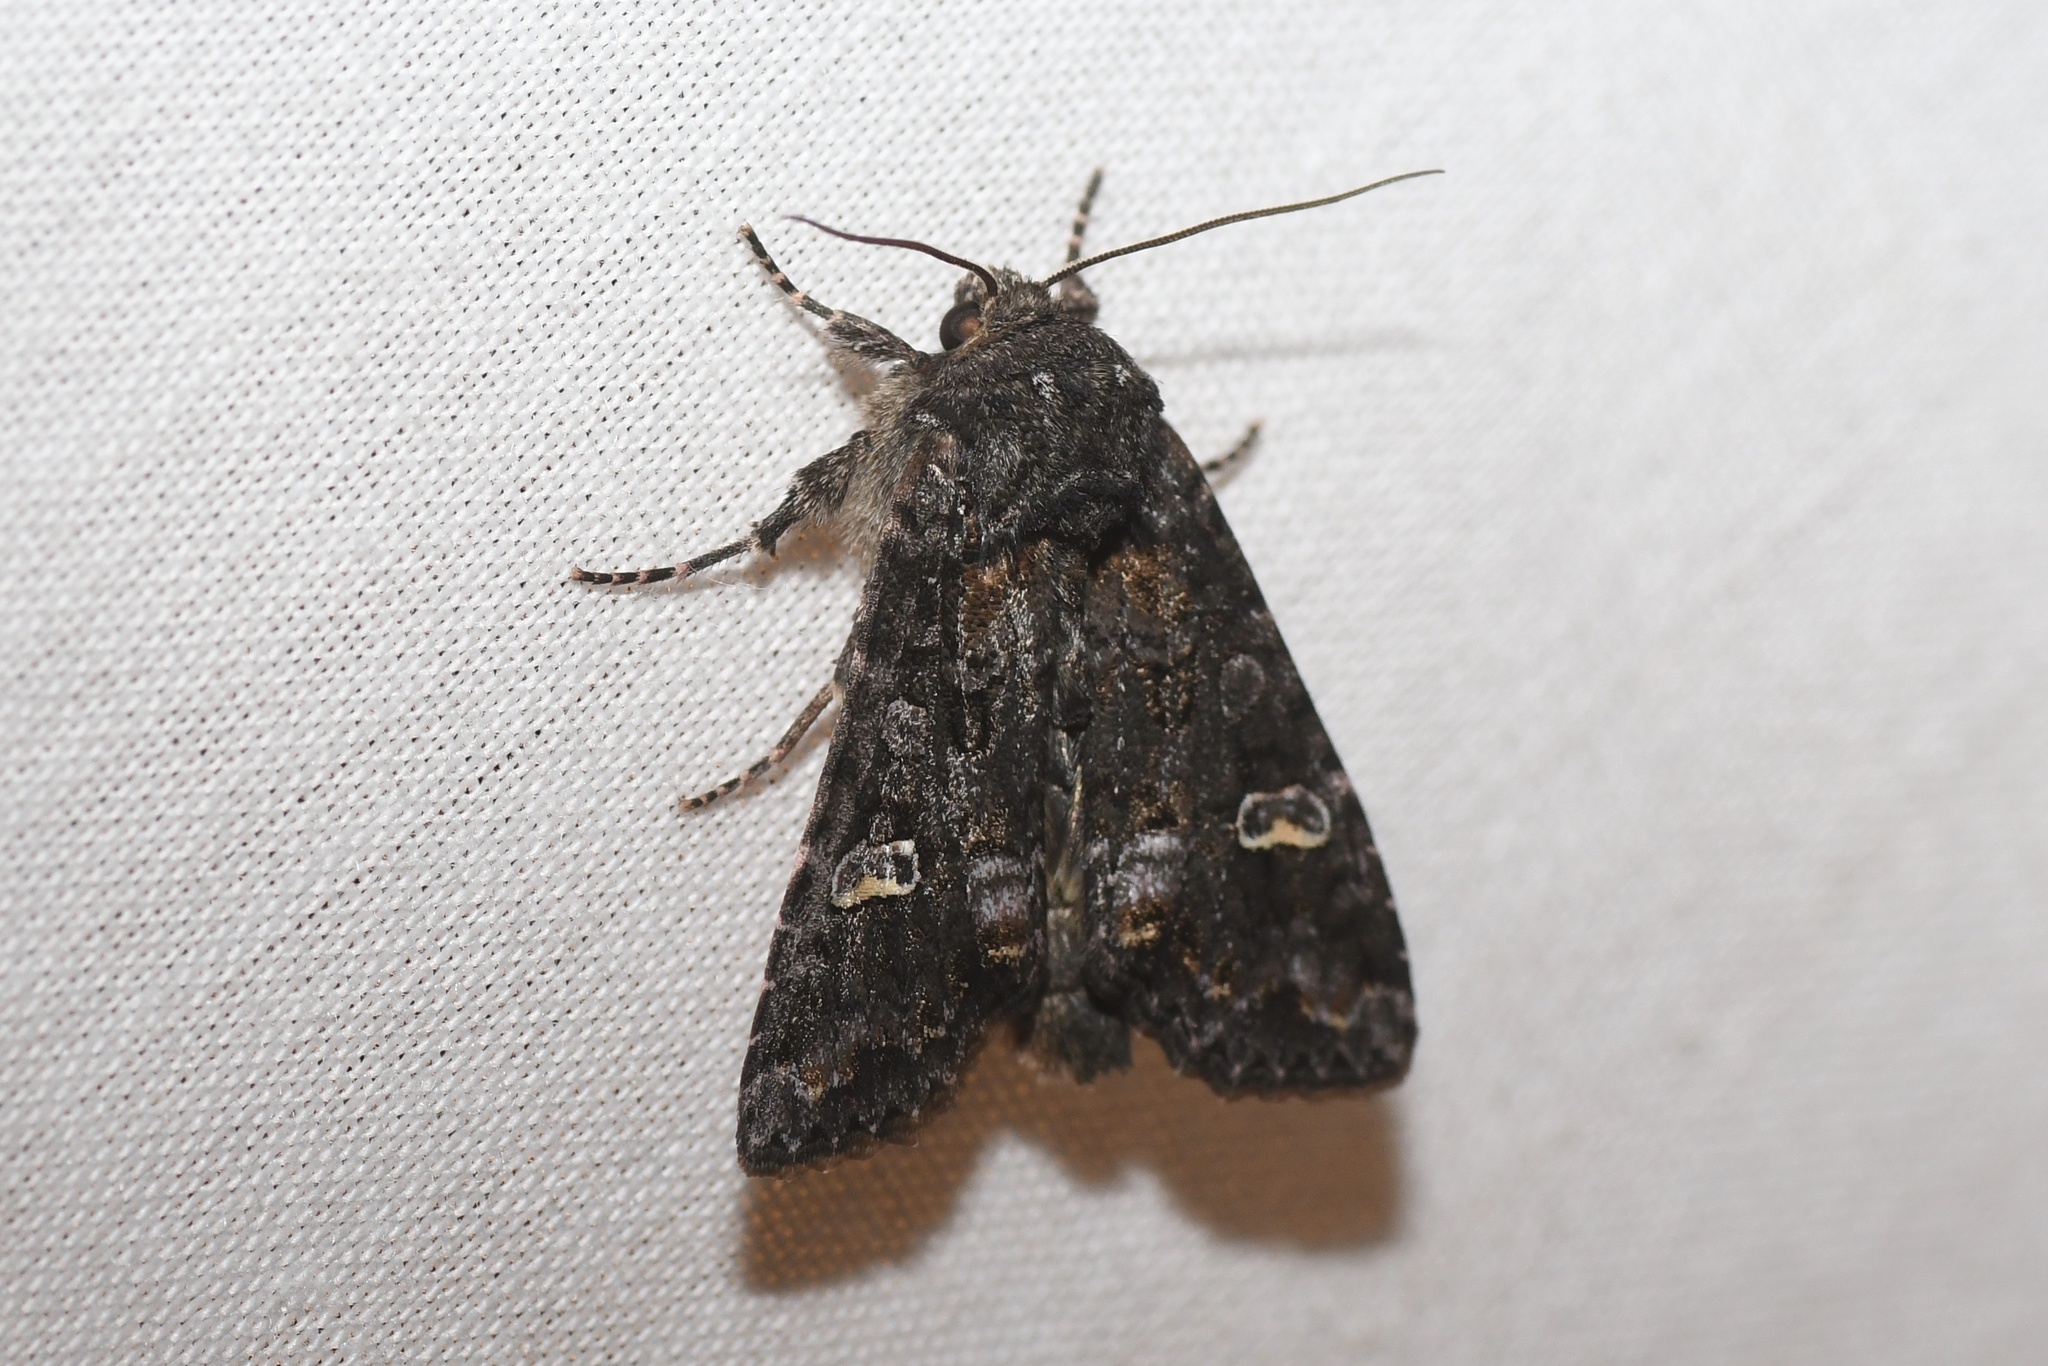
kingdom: Animalia
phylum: Arthropoda
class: Insecta
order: Lepidoptera
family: Noctuidae
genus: Spiramater
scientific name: Spiramater lutra
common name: Otter spiramater moth
